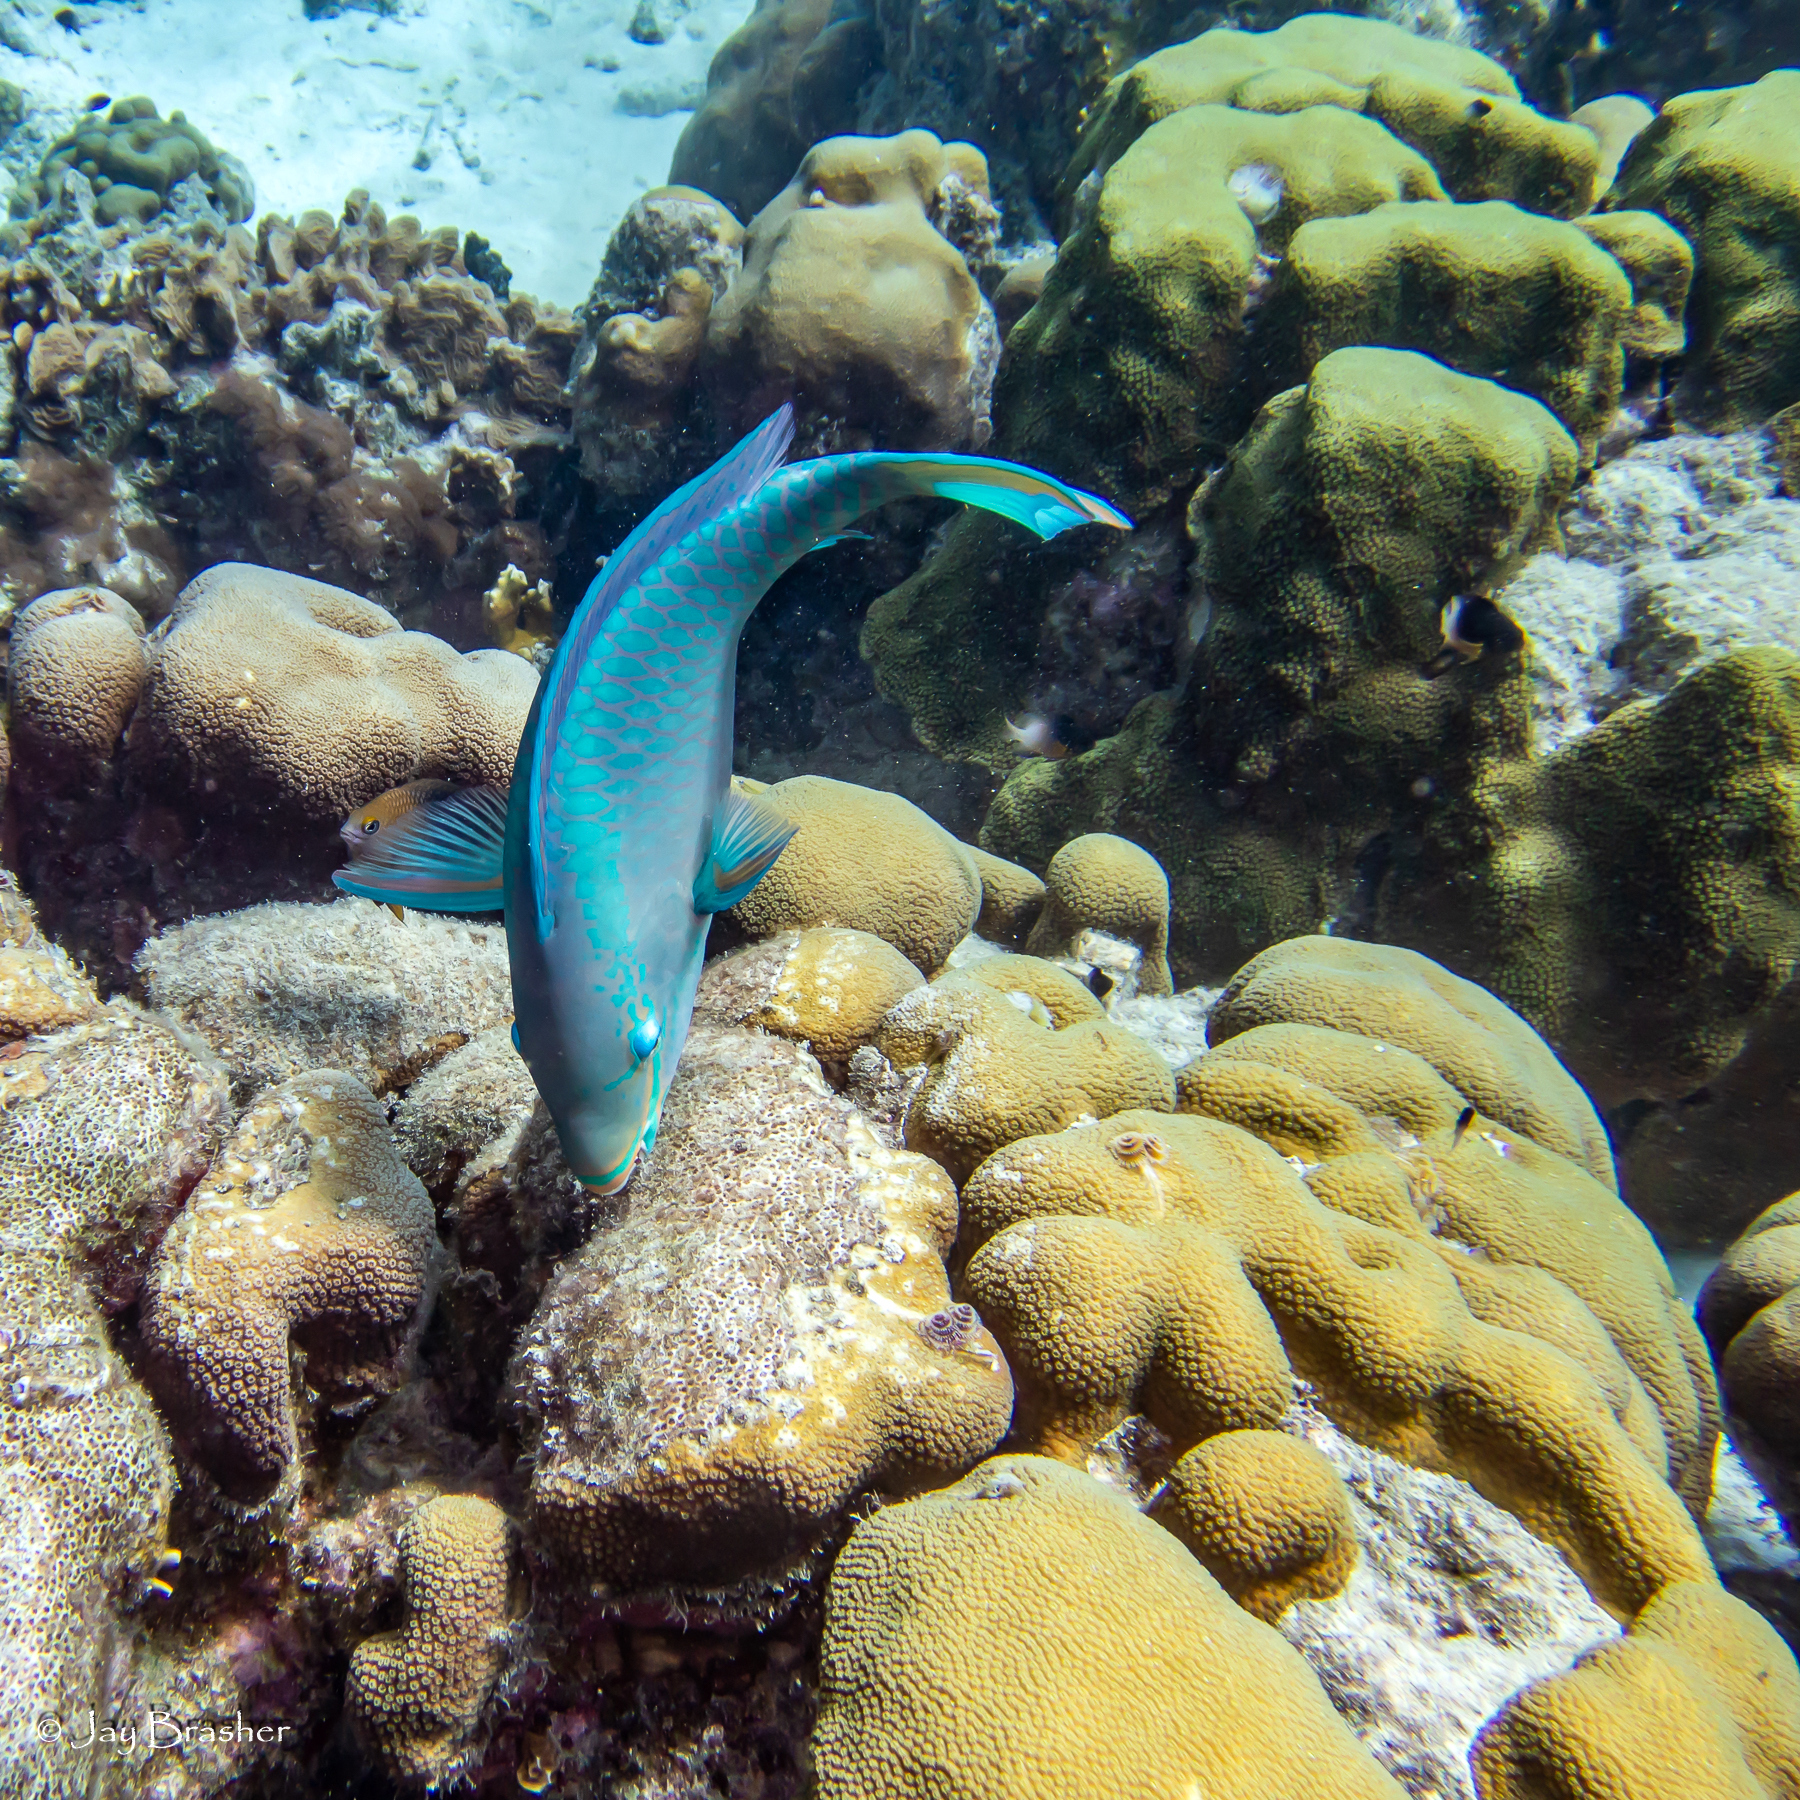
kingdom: Animalia
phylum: Chordata
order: Perciformes
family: Scaridae
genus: Scarus
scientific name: Scarus vetula
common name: Queen parrotfish
